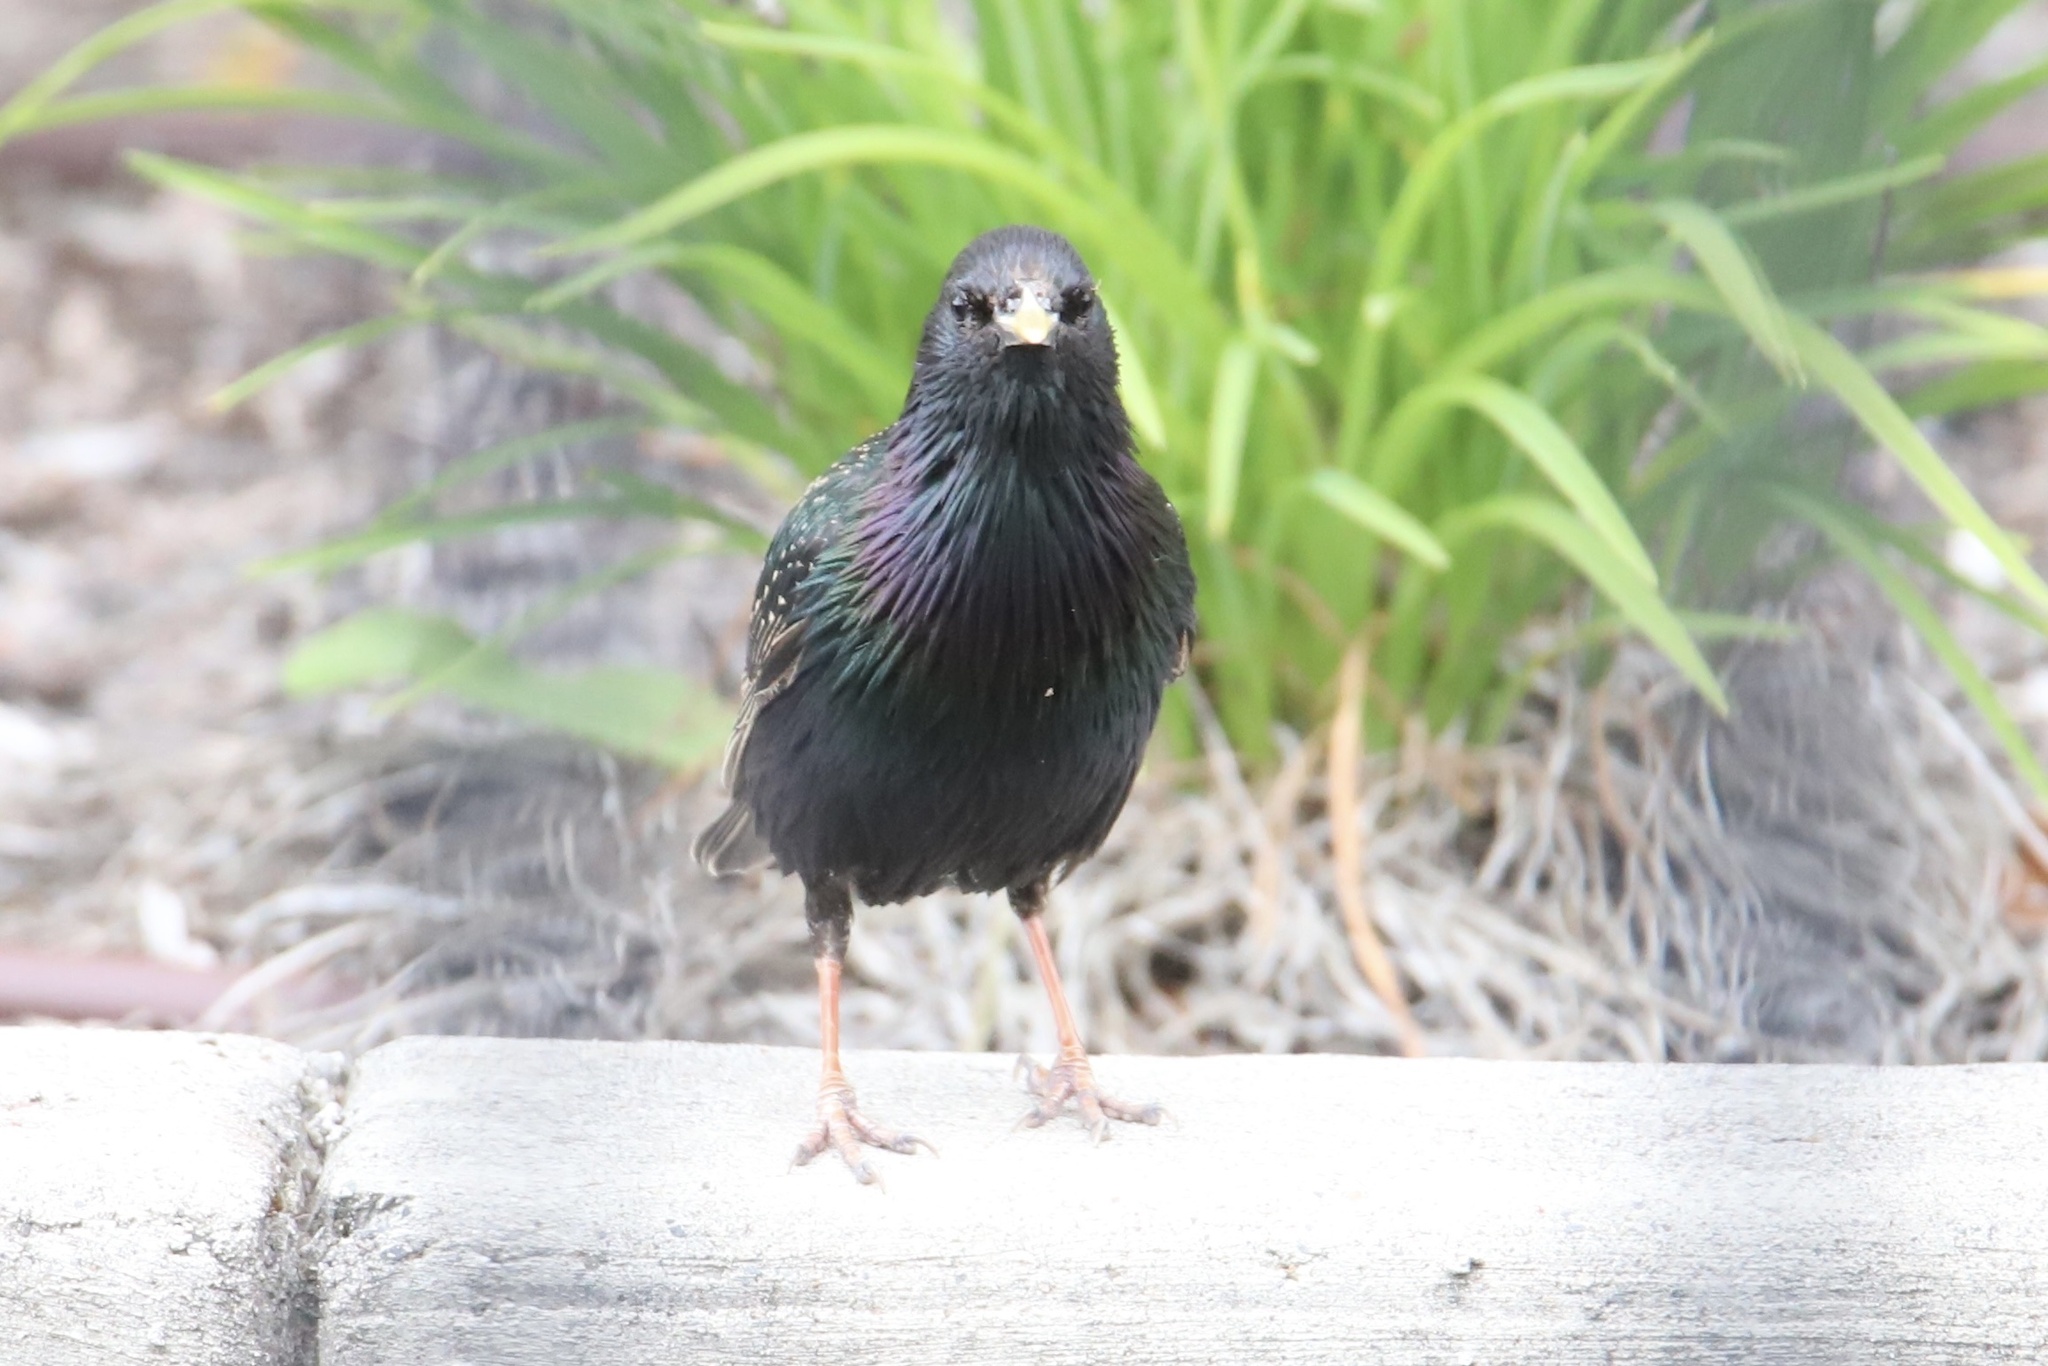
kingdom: Animalia
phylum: Chordata
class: Aves
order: Passeriformes
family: Sturnidae
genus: Sturnus
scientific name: Sturnus vulgaris
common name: Common starling
